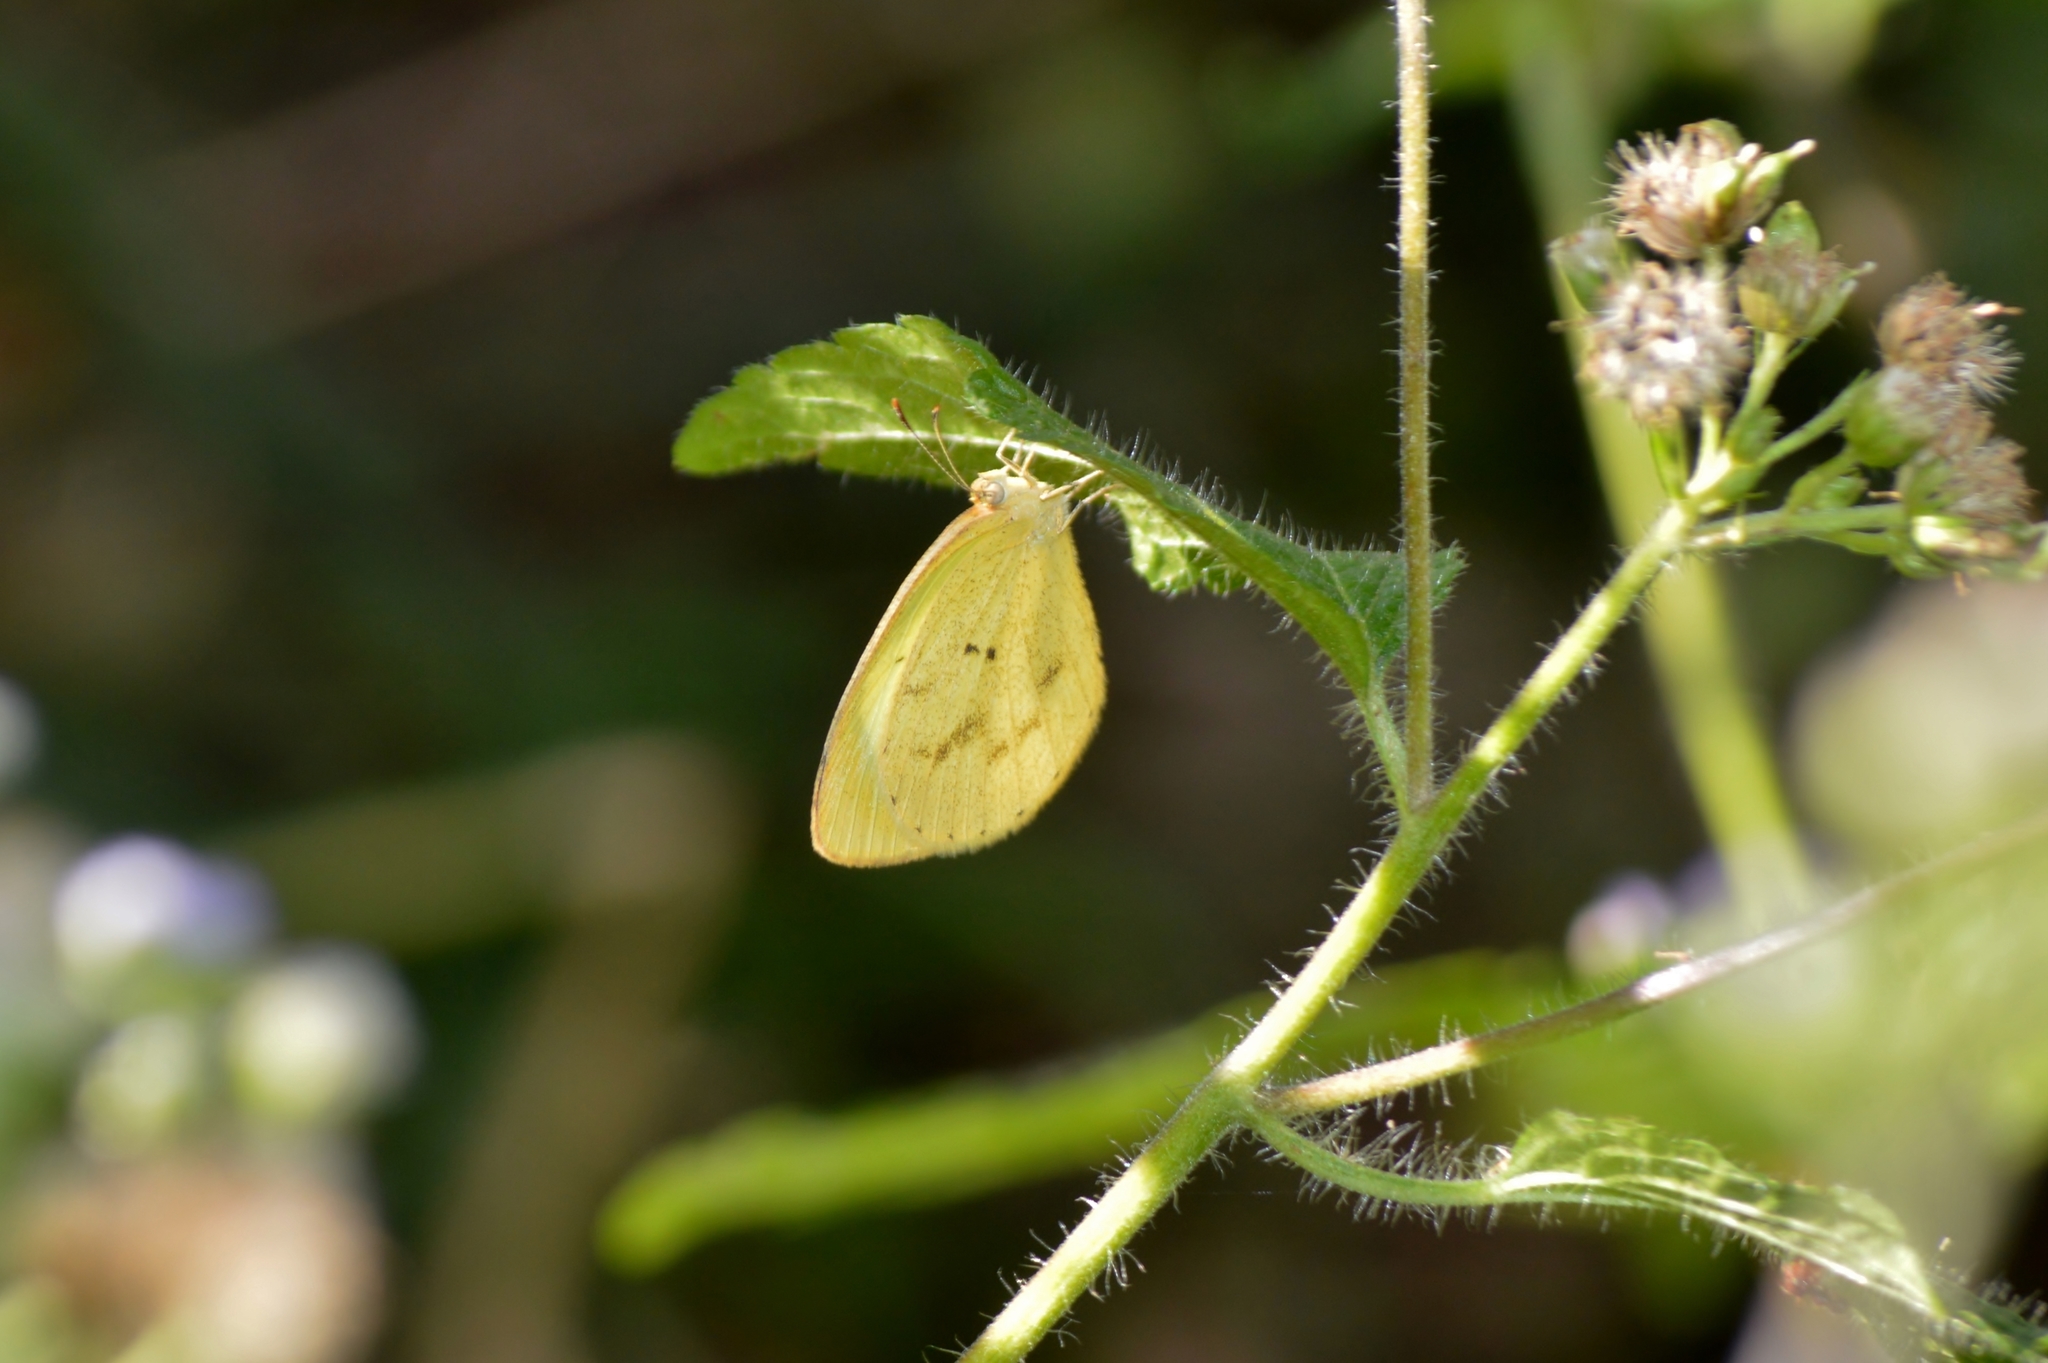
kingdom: Animalia
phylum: Arthropoda
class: Insecta
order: Lepidoptera
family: Pieridae
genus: Eurema
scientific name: Eurema elathea
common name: Banded yellow
